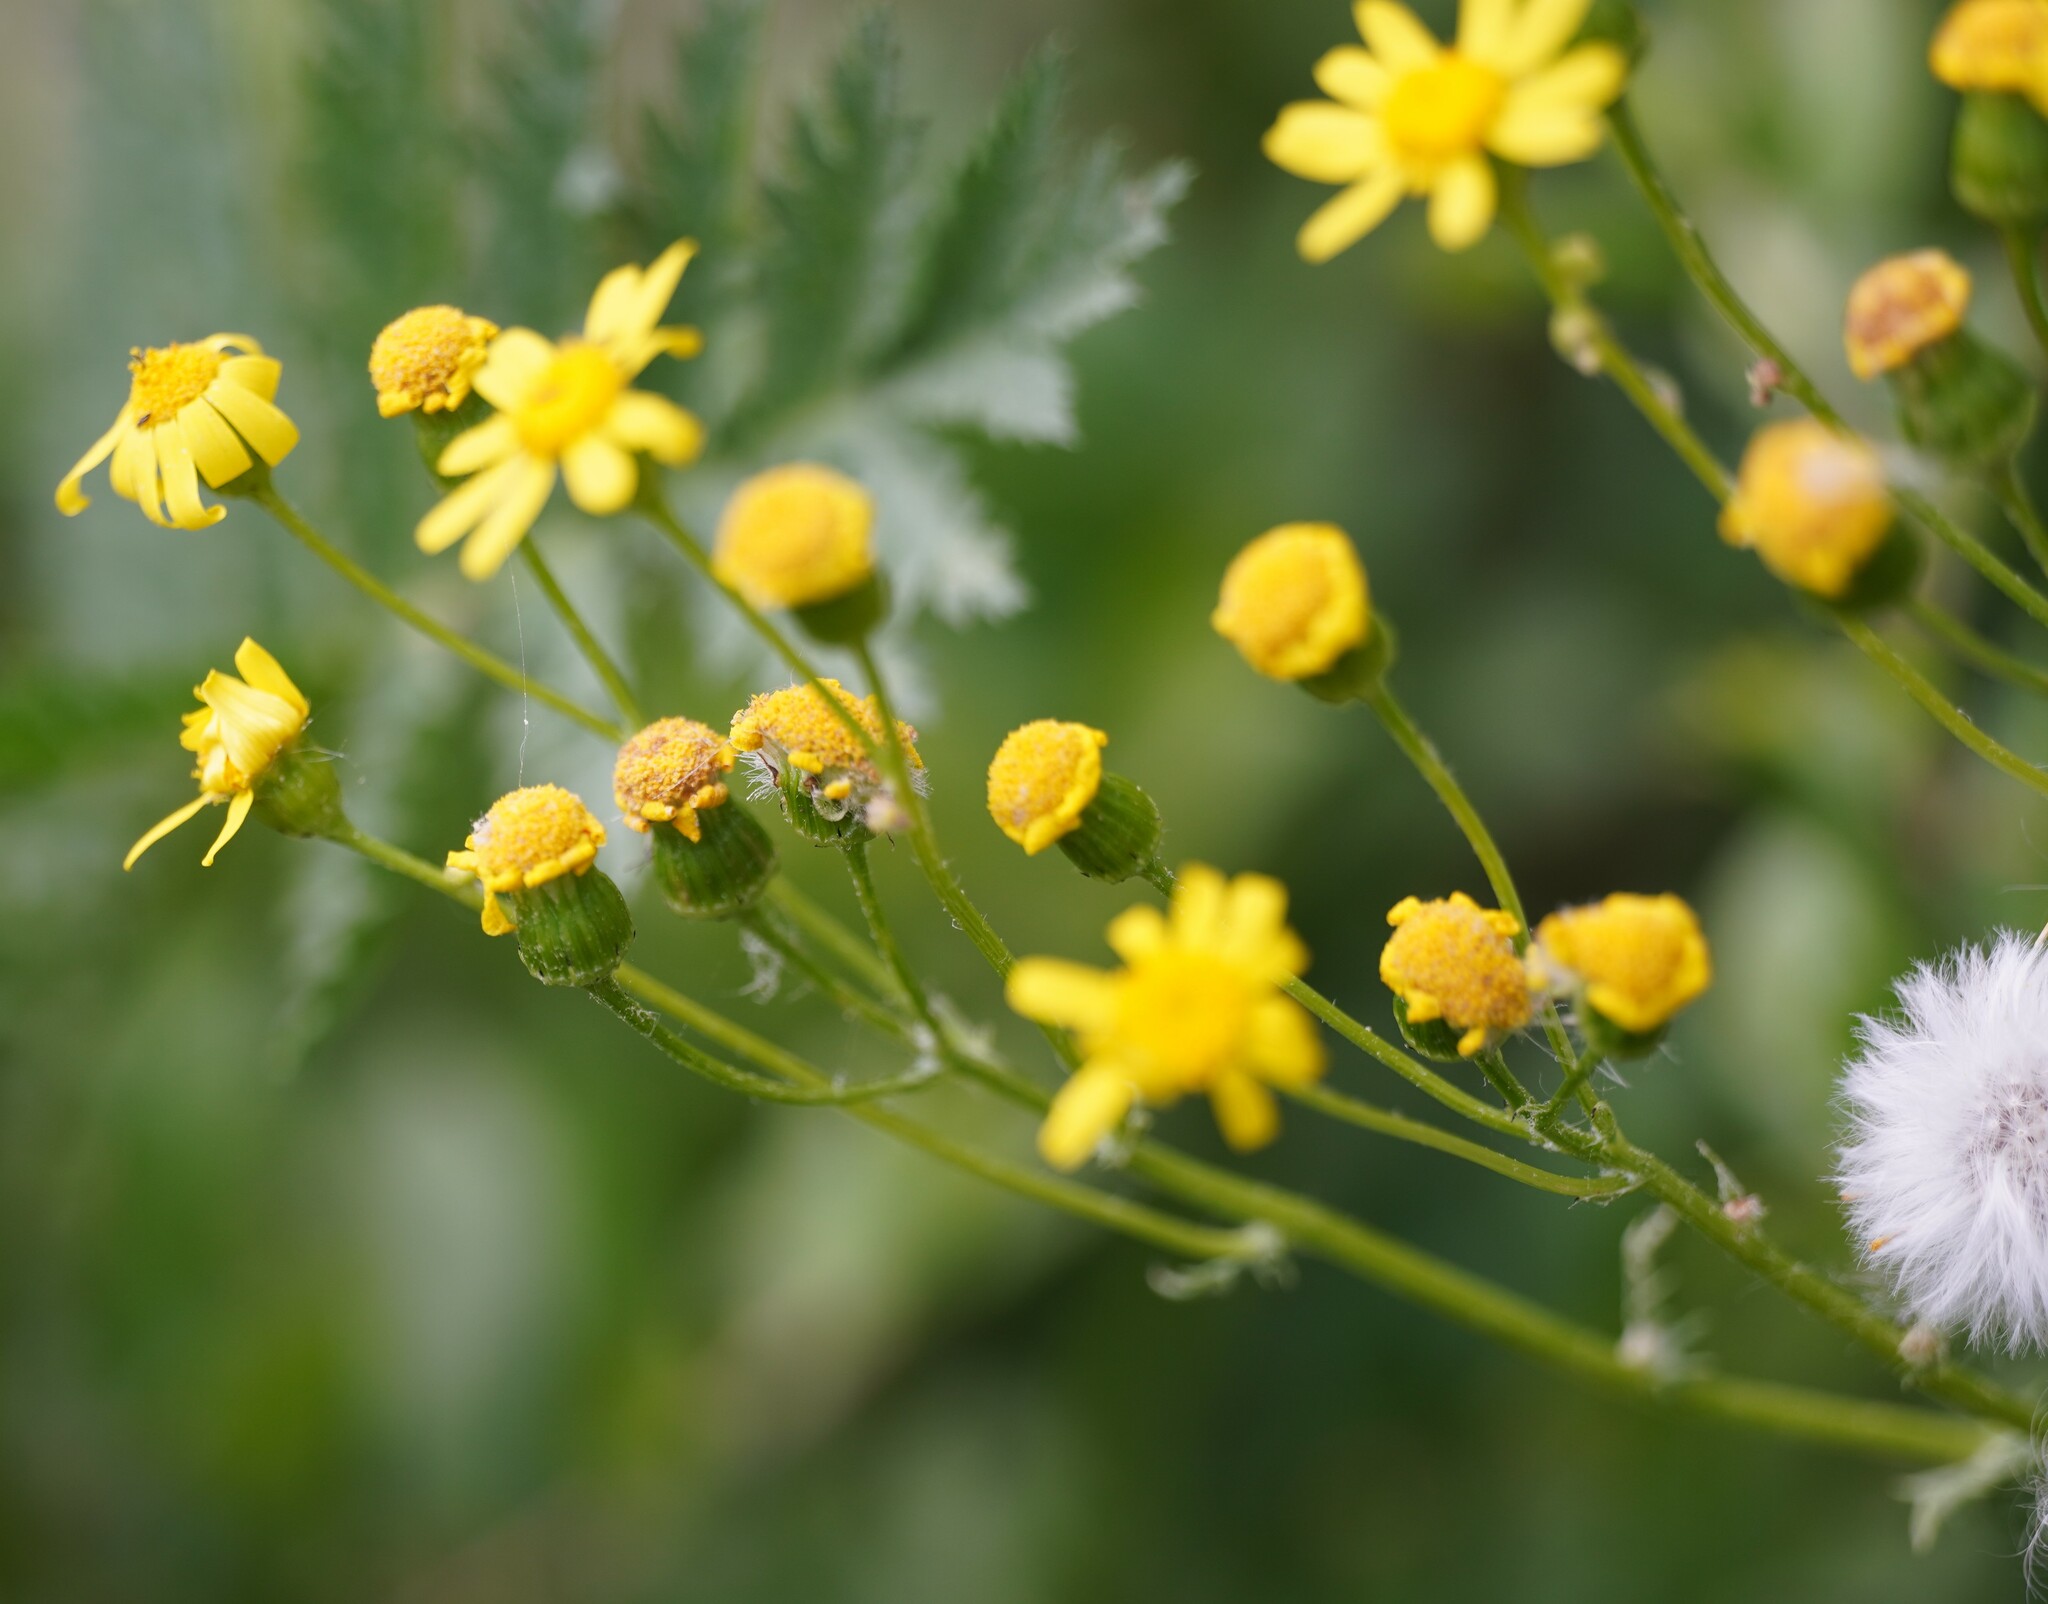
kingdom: Plantae
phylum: Tracheophyta
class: Magnoliopsida
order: Asterales
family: Asteraceae
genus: Senecio
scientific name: Senecio vernalis
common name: Eastern groundsel
